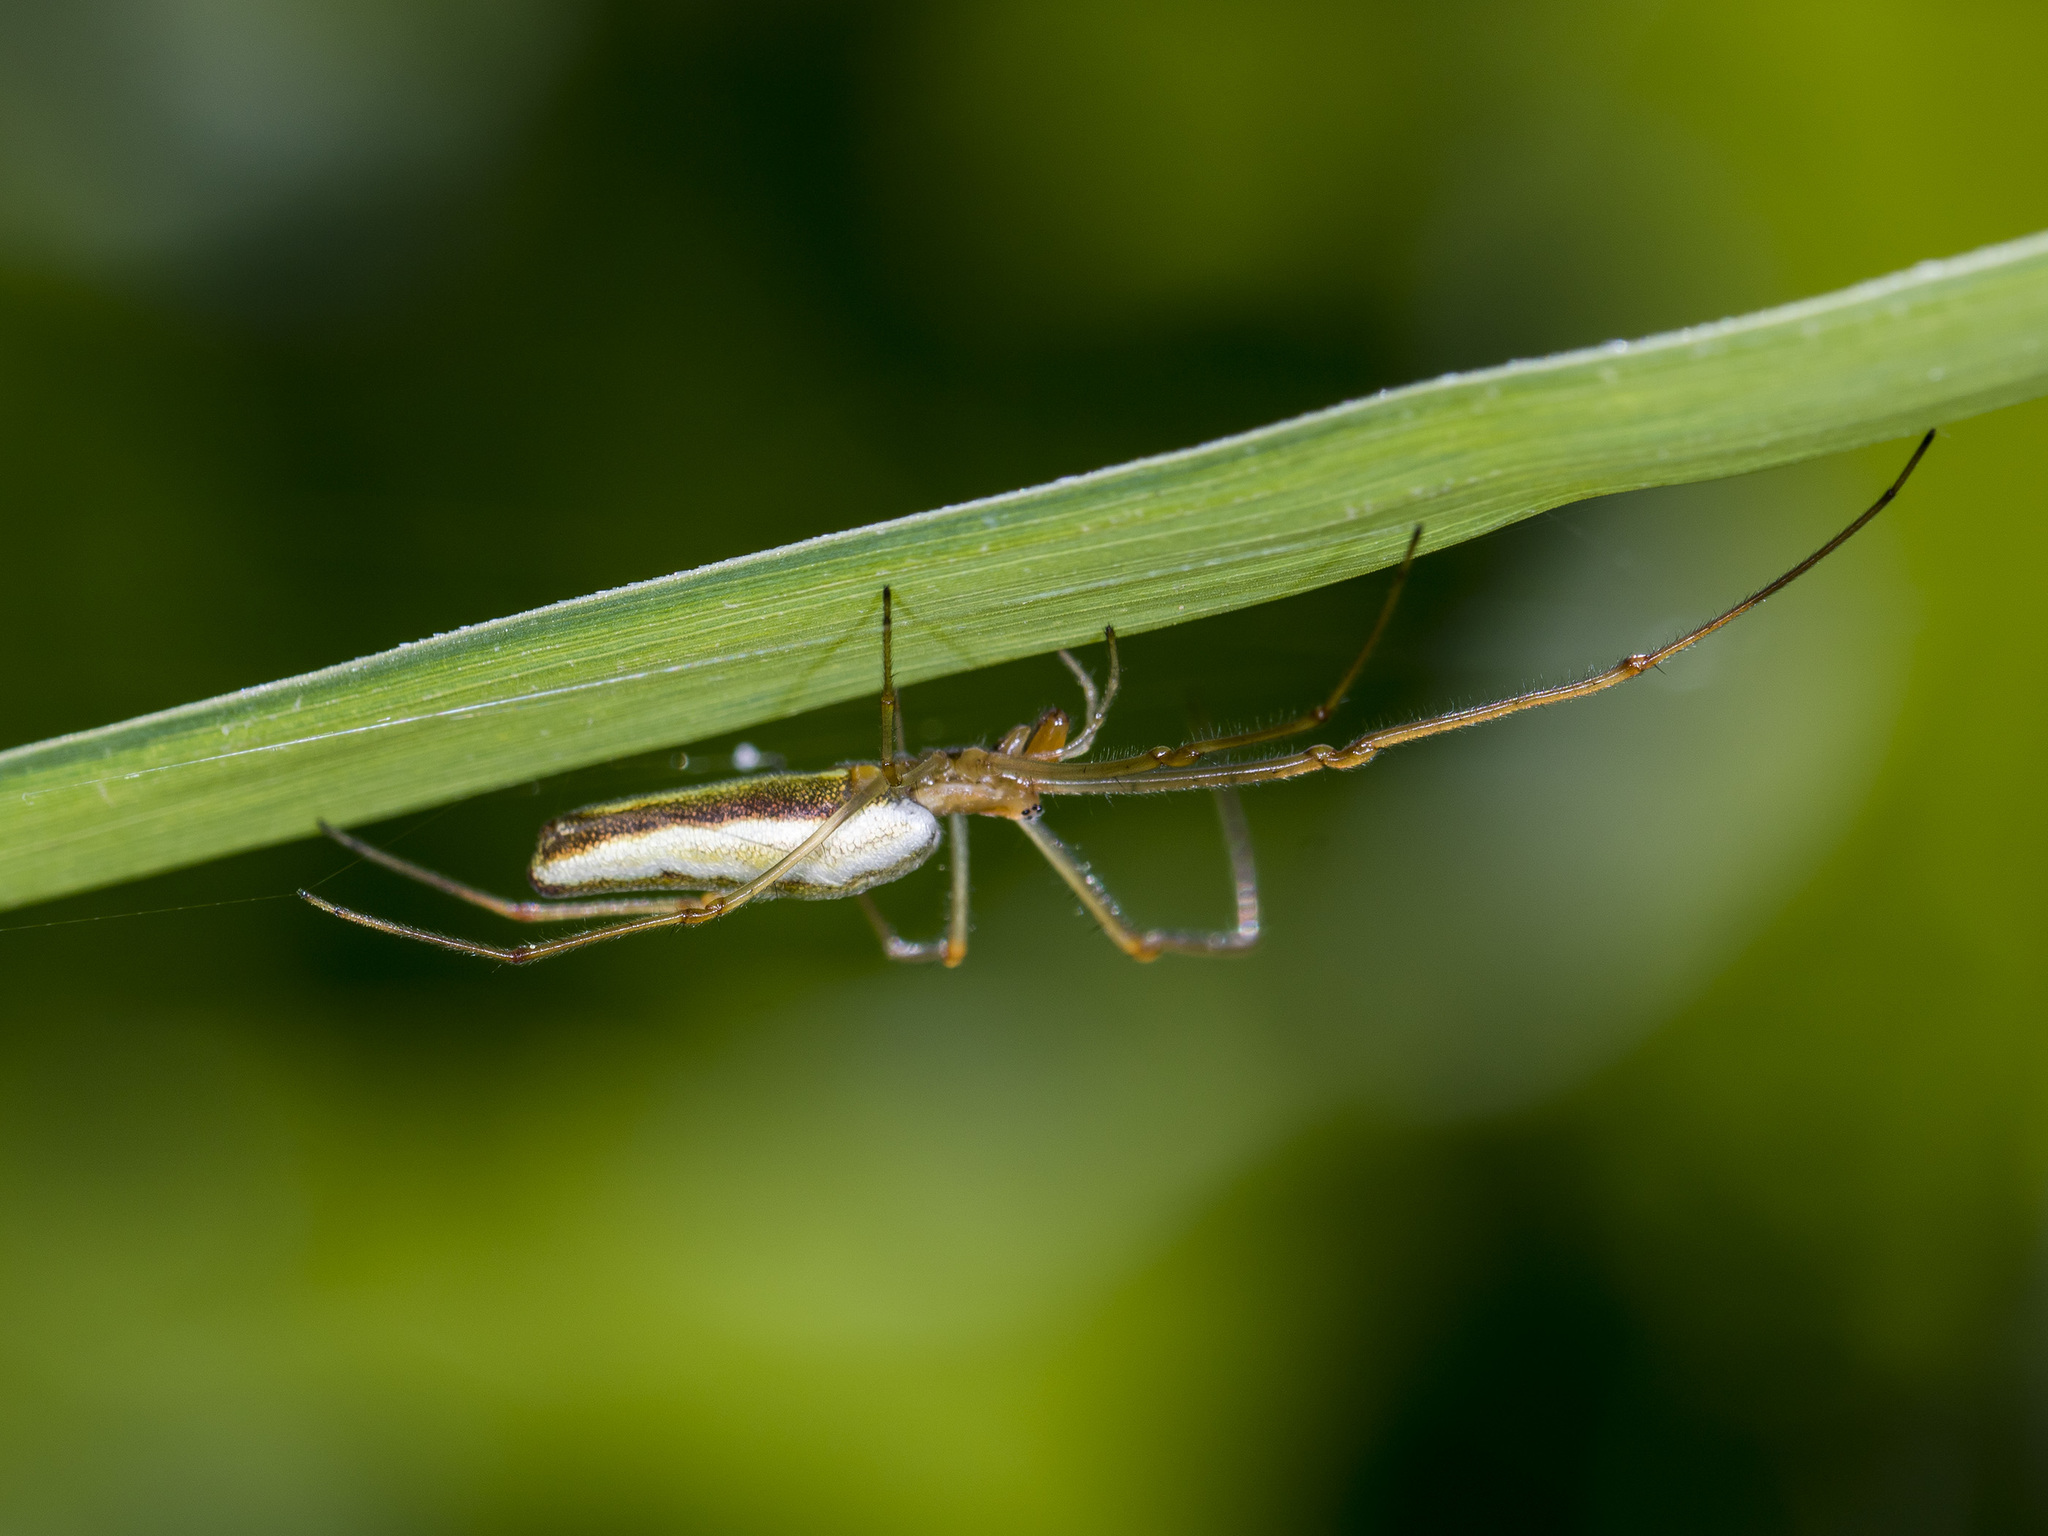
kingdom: Animalia
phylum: Arthropoda
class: Arachnida
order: Araneae
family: Tetragnathidae
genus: Tetragnatha
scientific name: Tetragnatha extensa
